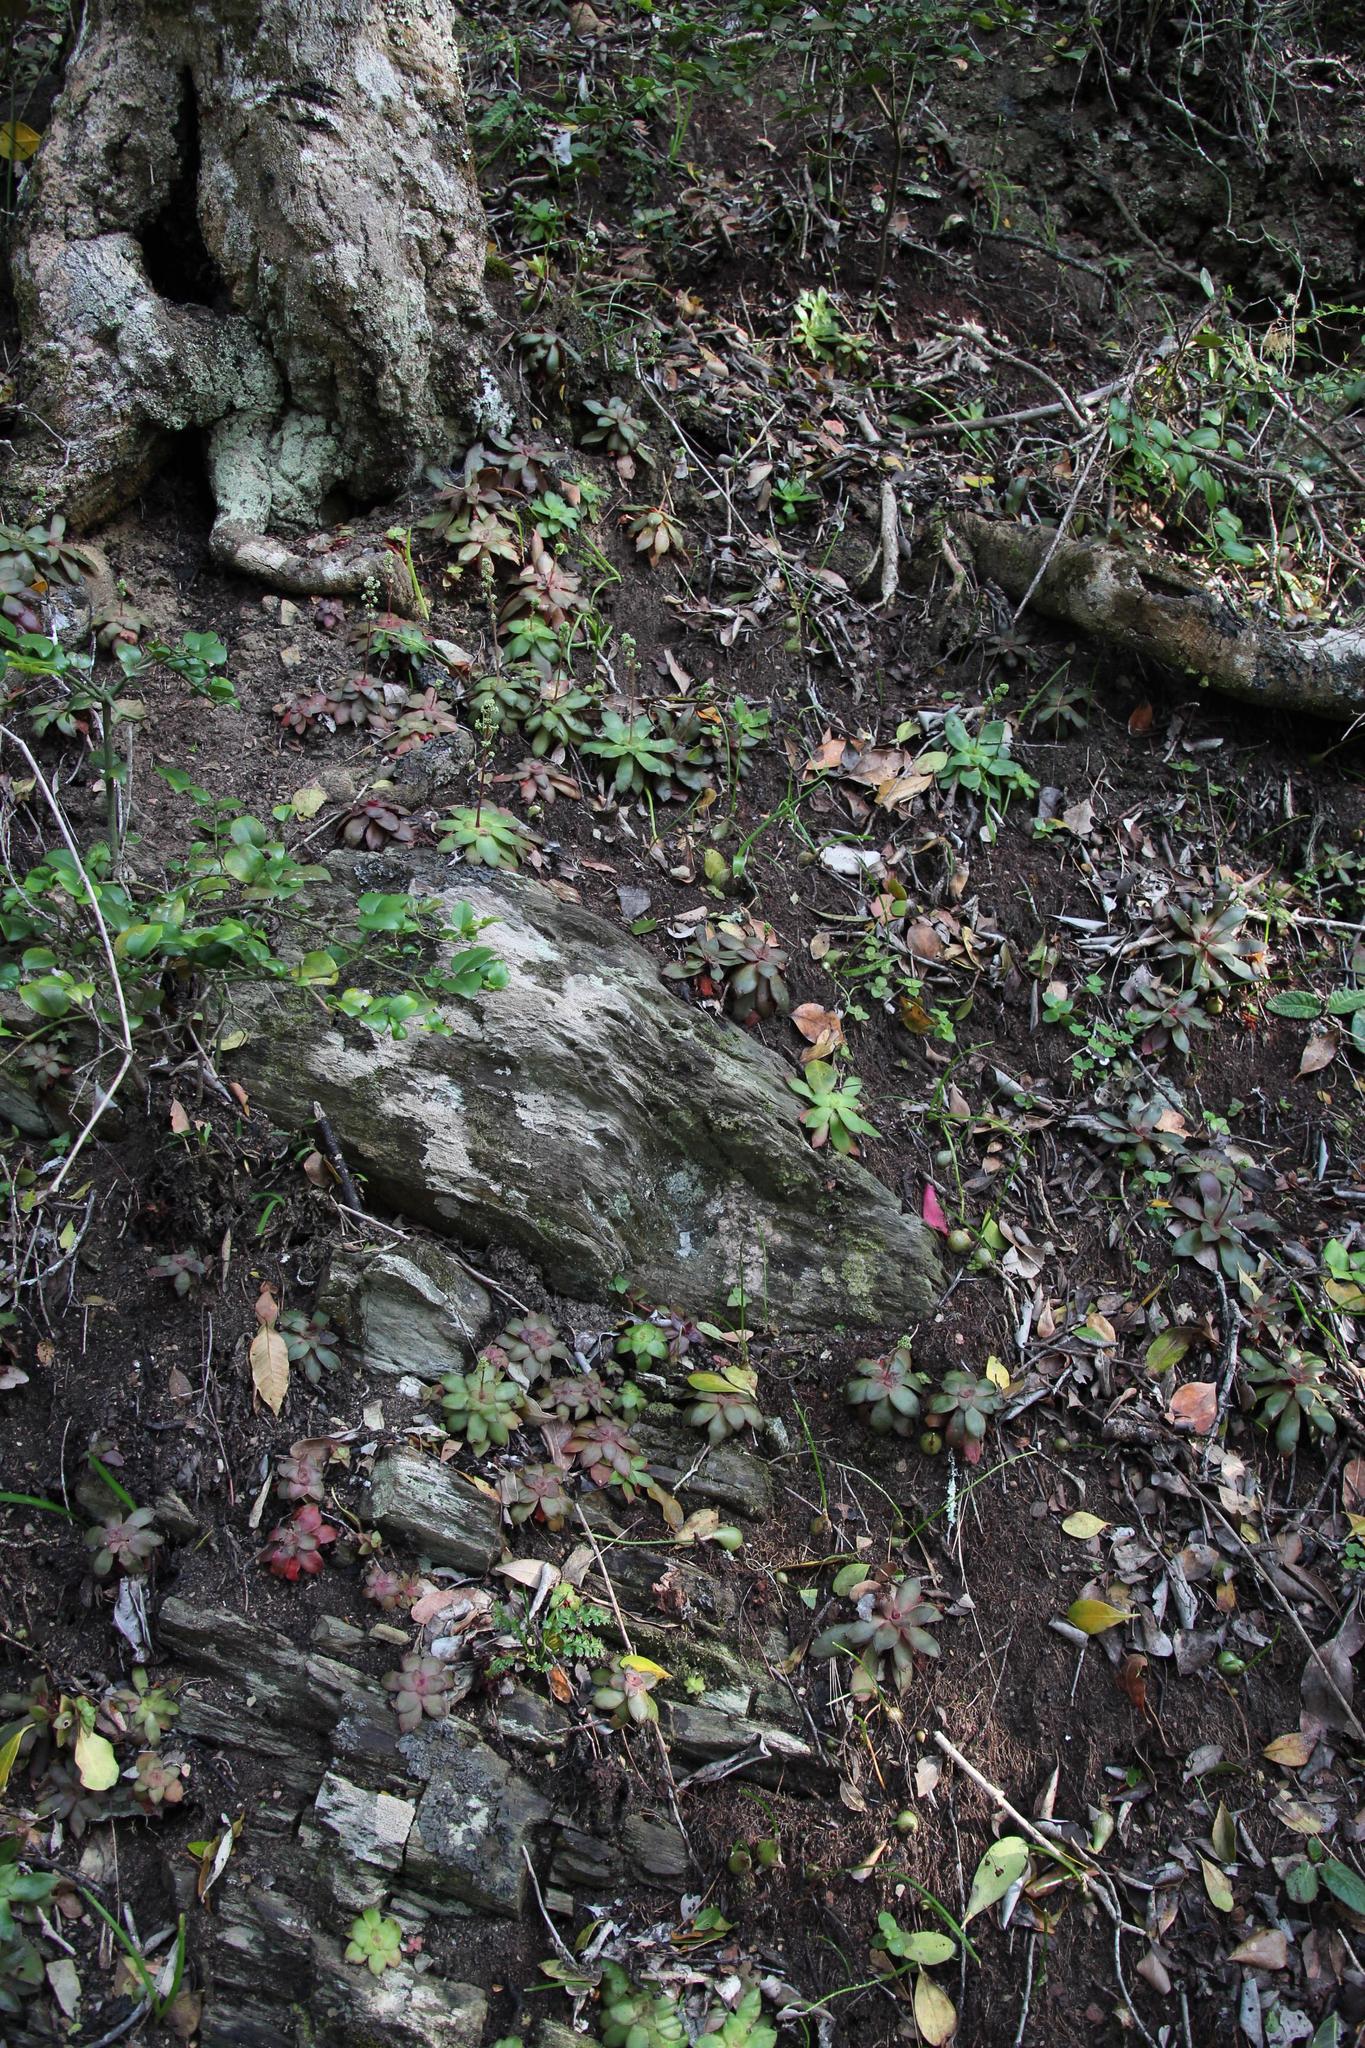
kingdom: Plantae
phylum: Tracheophyta
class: Magnoliopsida
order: Saxifragales
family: Crassulaceae
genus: Crassula
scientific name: Crassula orbicularis
